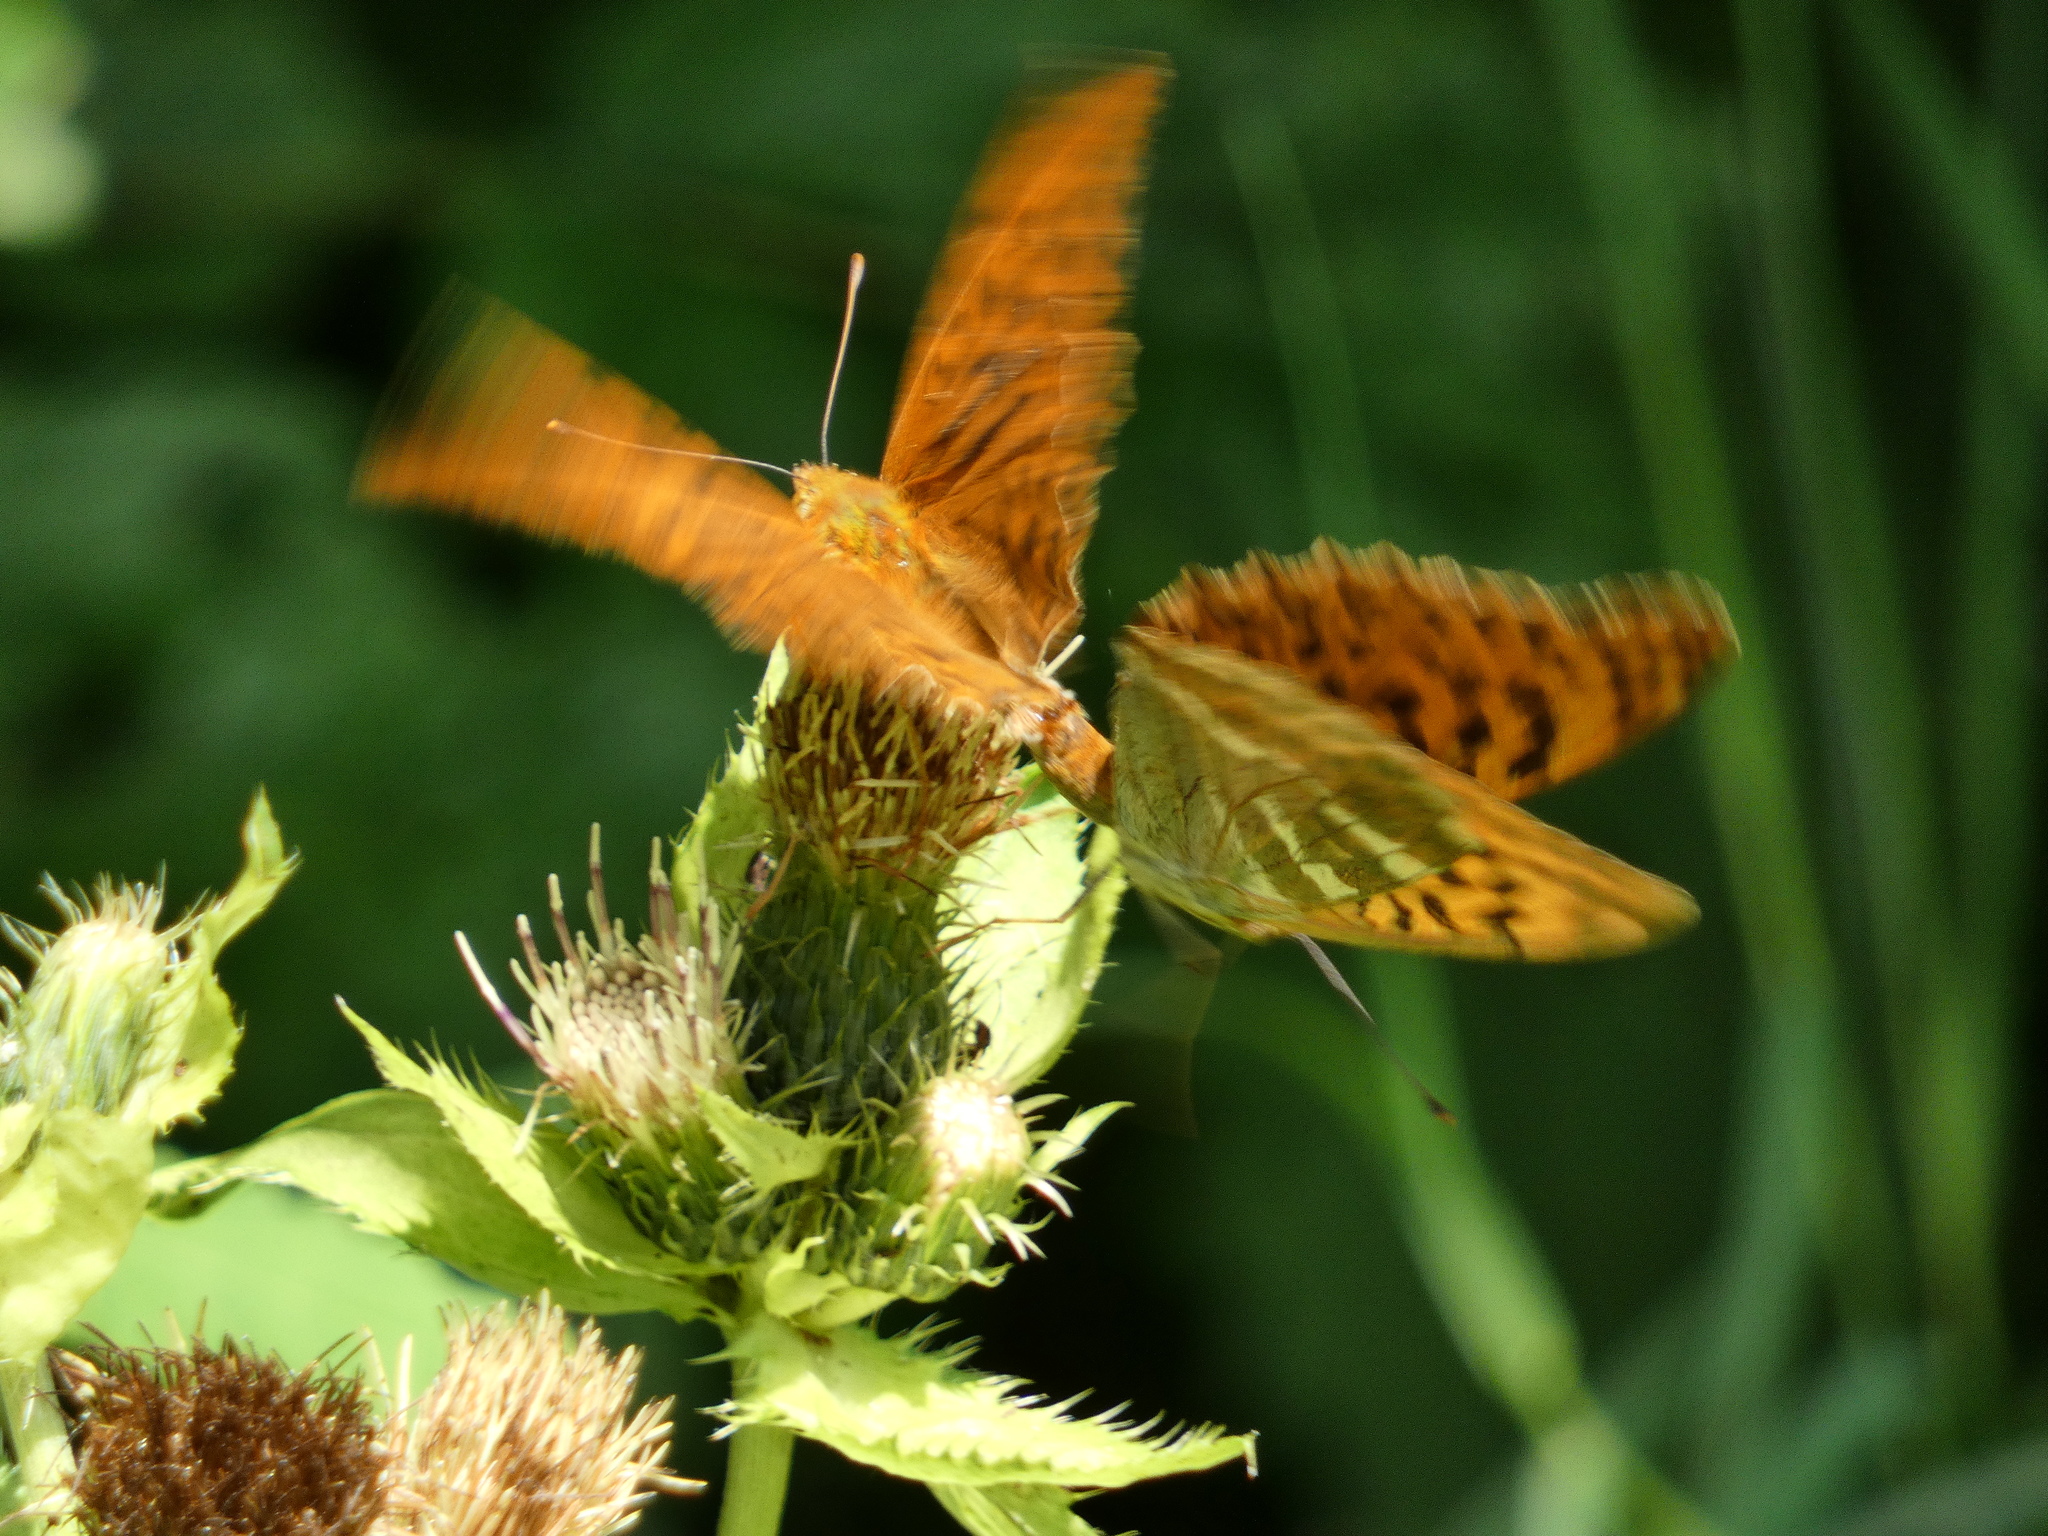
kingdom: Animalia
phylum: Arthropoda
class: Insecta
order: Lepidoptera
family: Nymphalidae
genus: Argynnis
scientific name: Argynnis paphia
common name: Silver-washed fritillary
